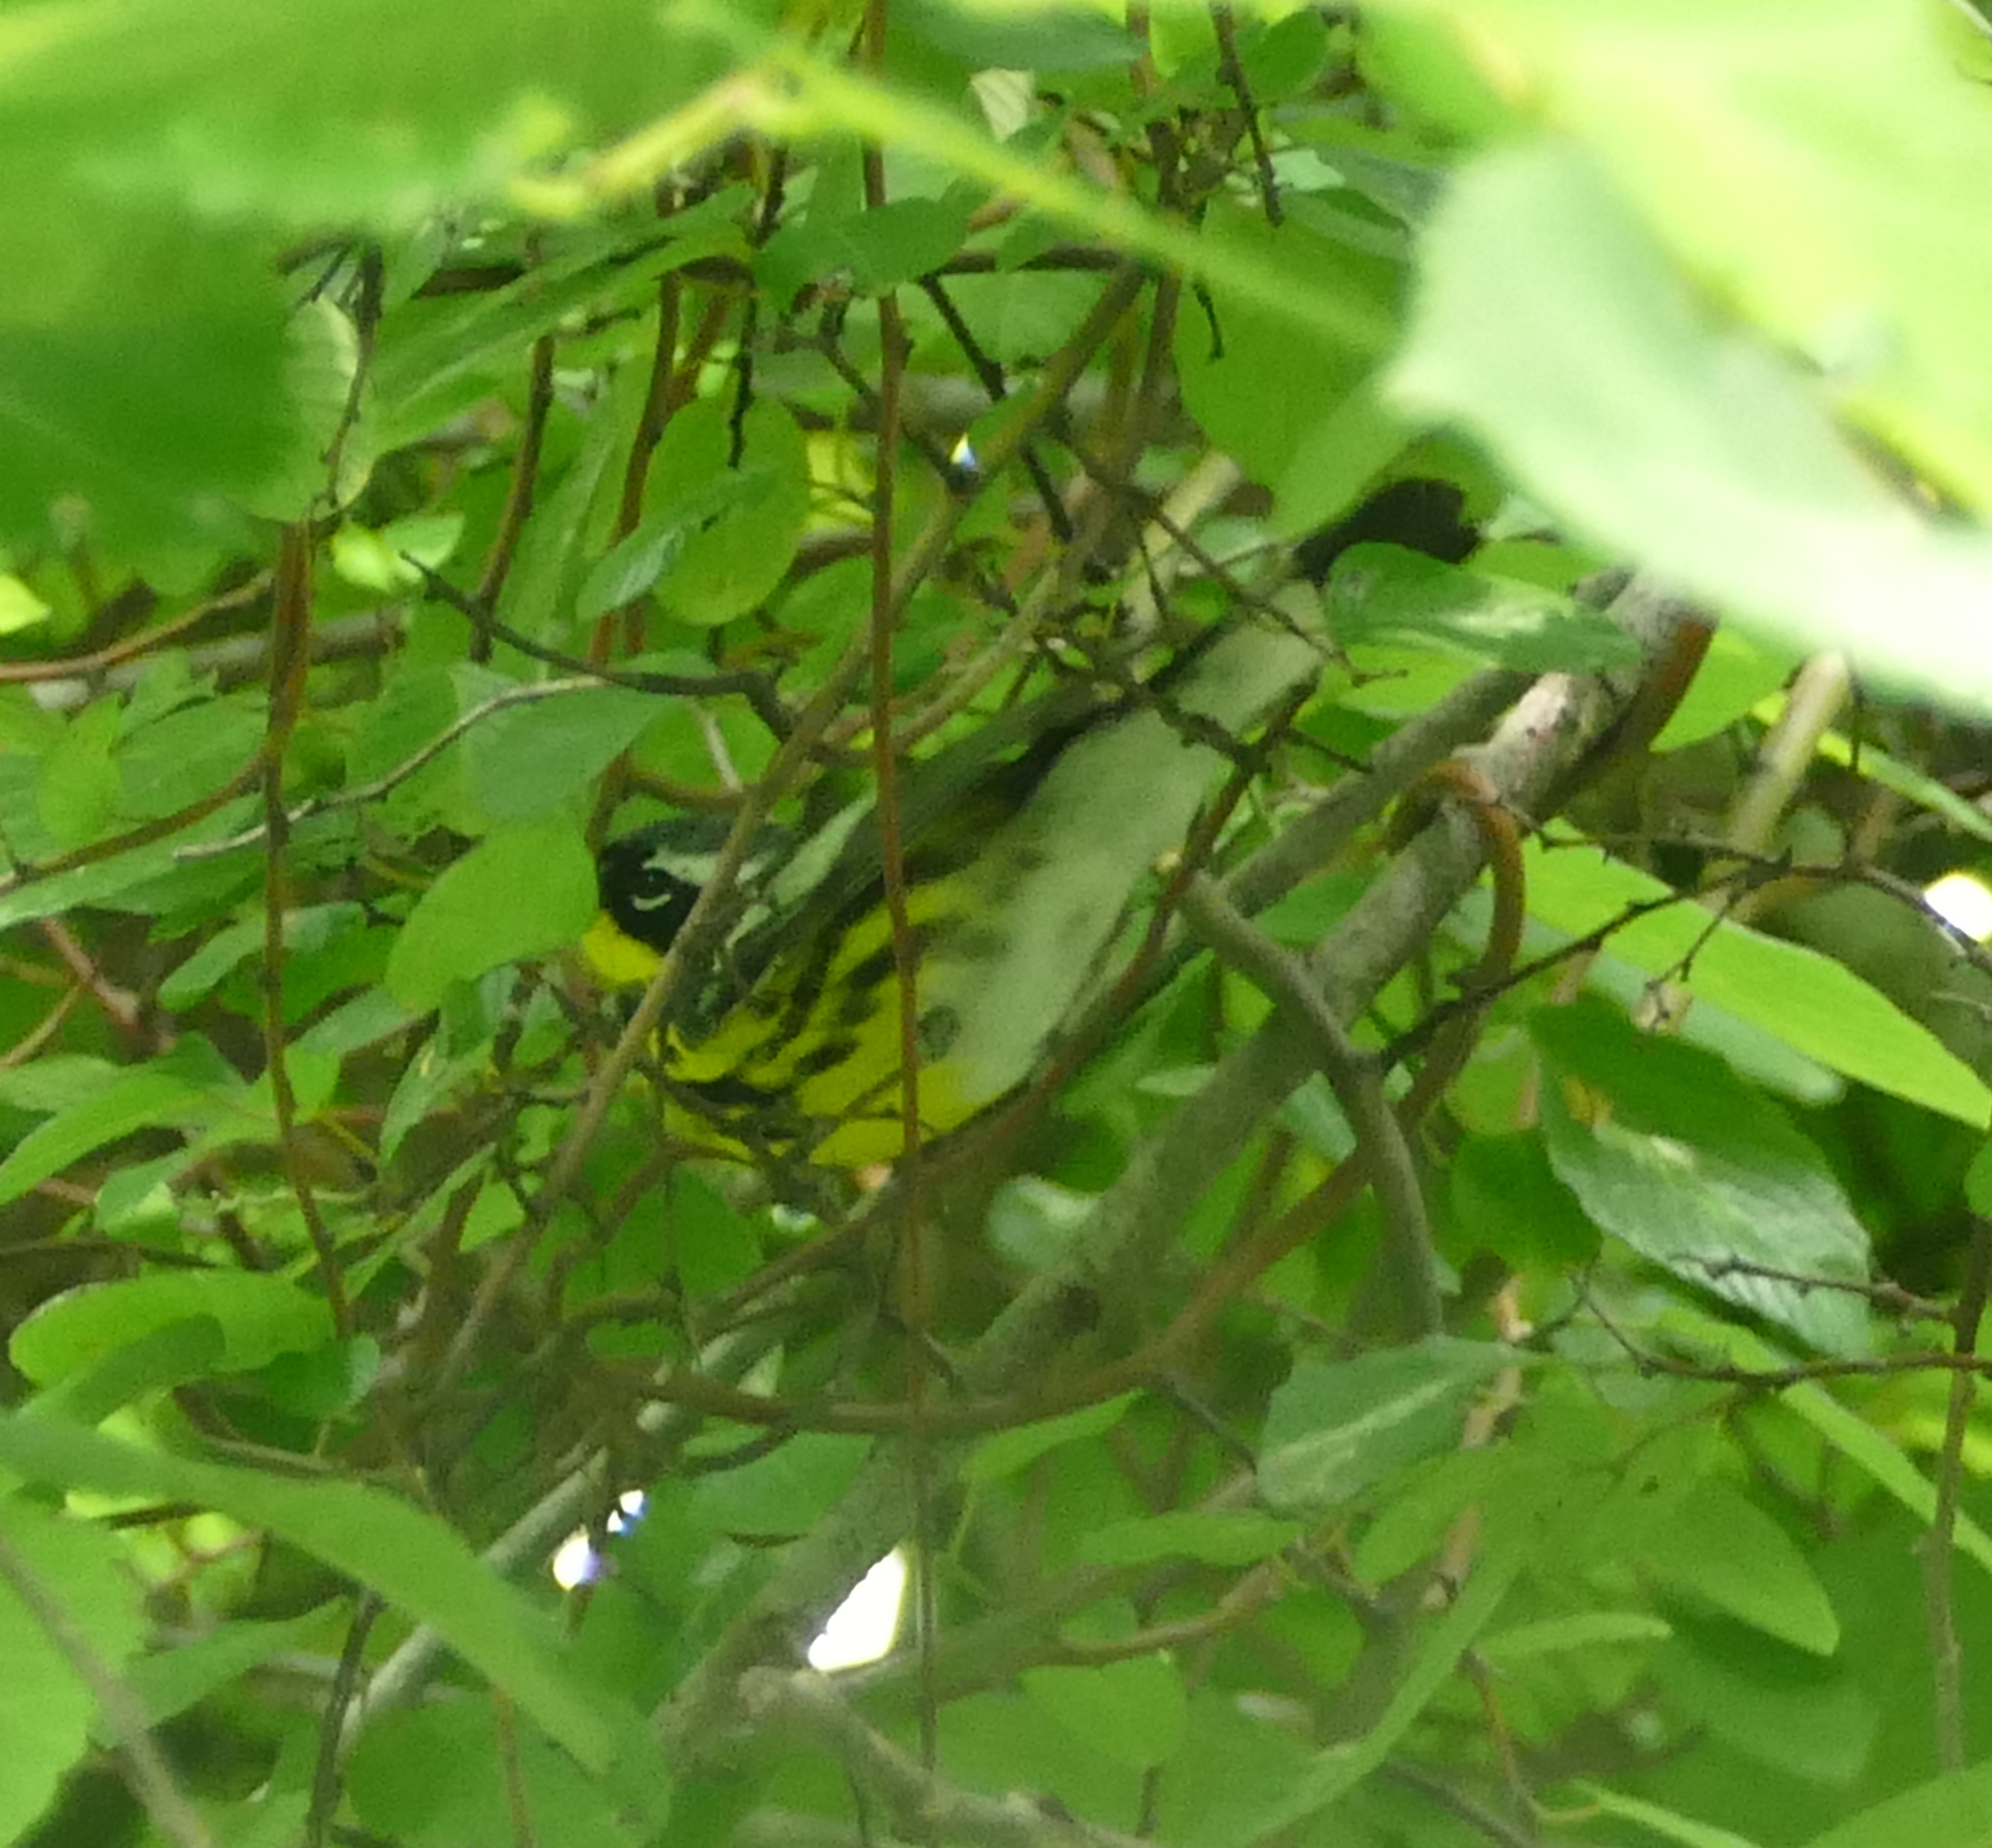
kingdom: Animalia
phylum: Chordata
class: Aves
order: Passeriformes
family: Parulidae
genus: Setophaga
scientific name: Setophaga magnolia
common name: Magnolia warbler
